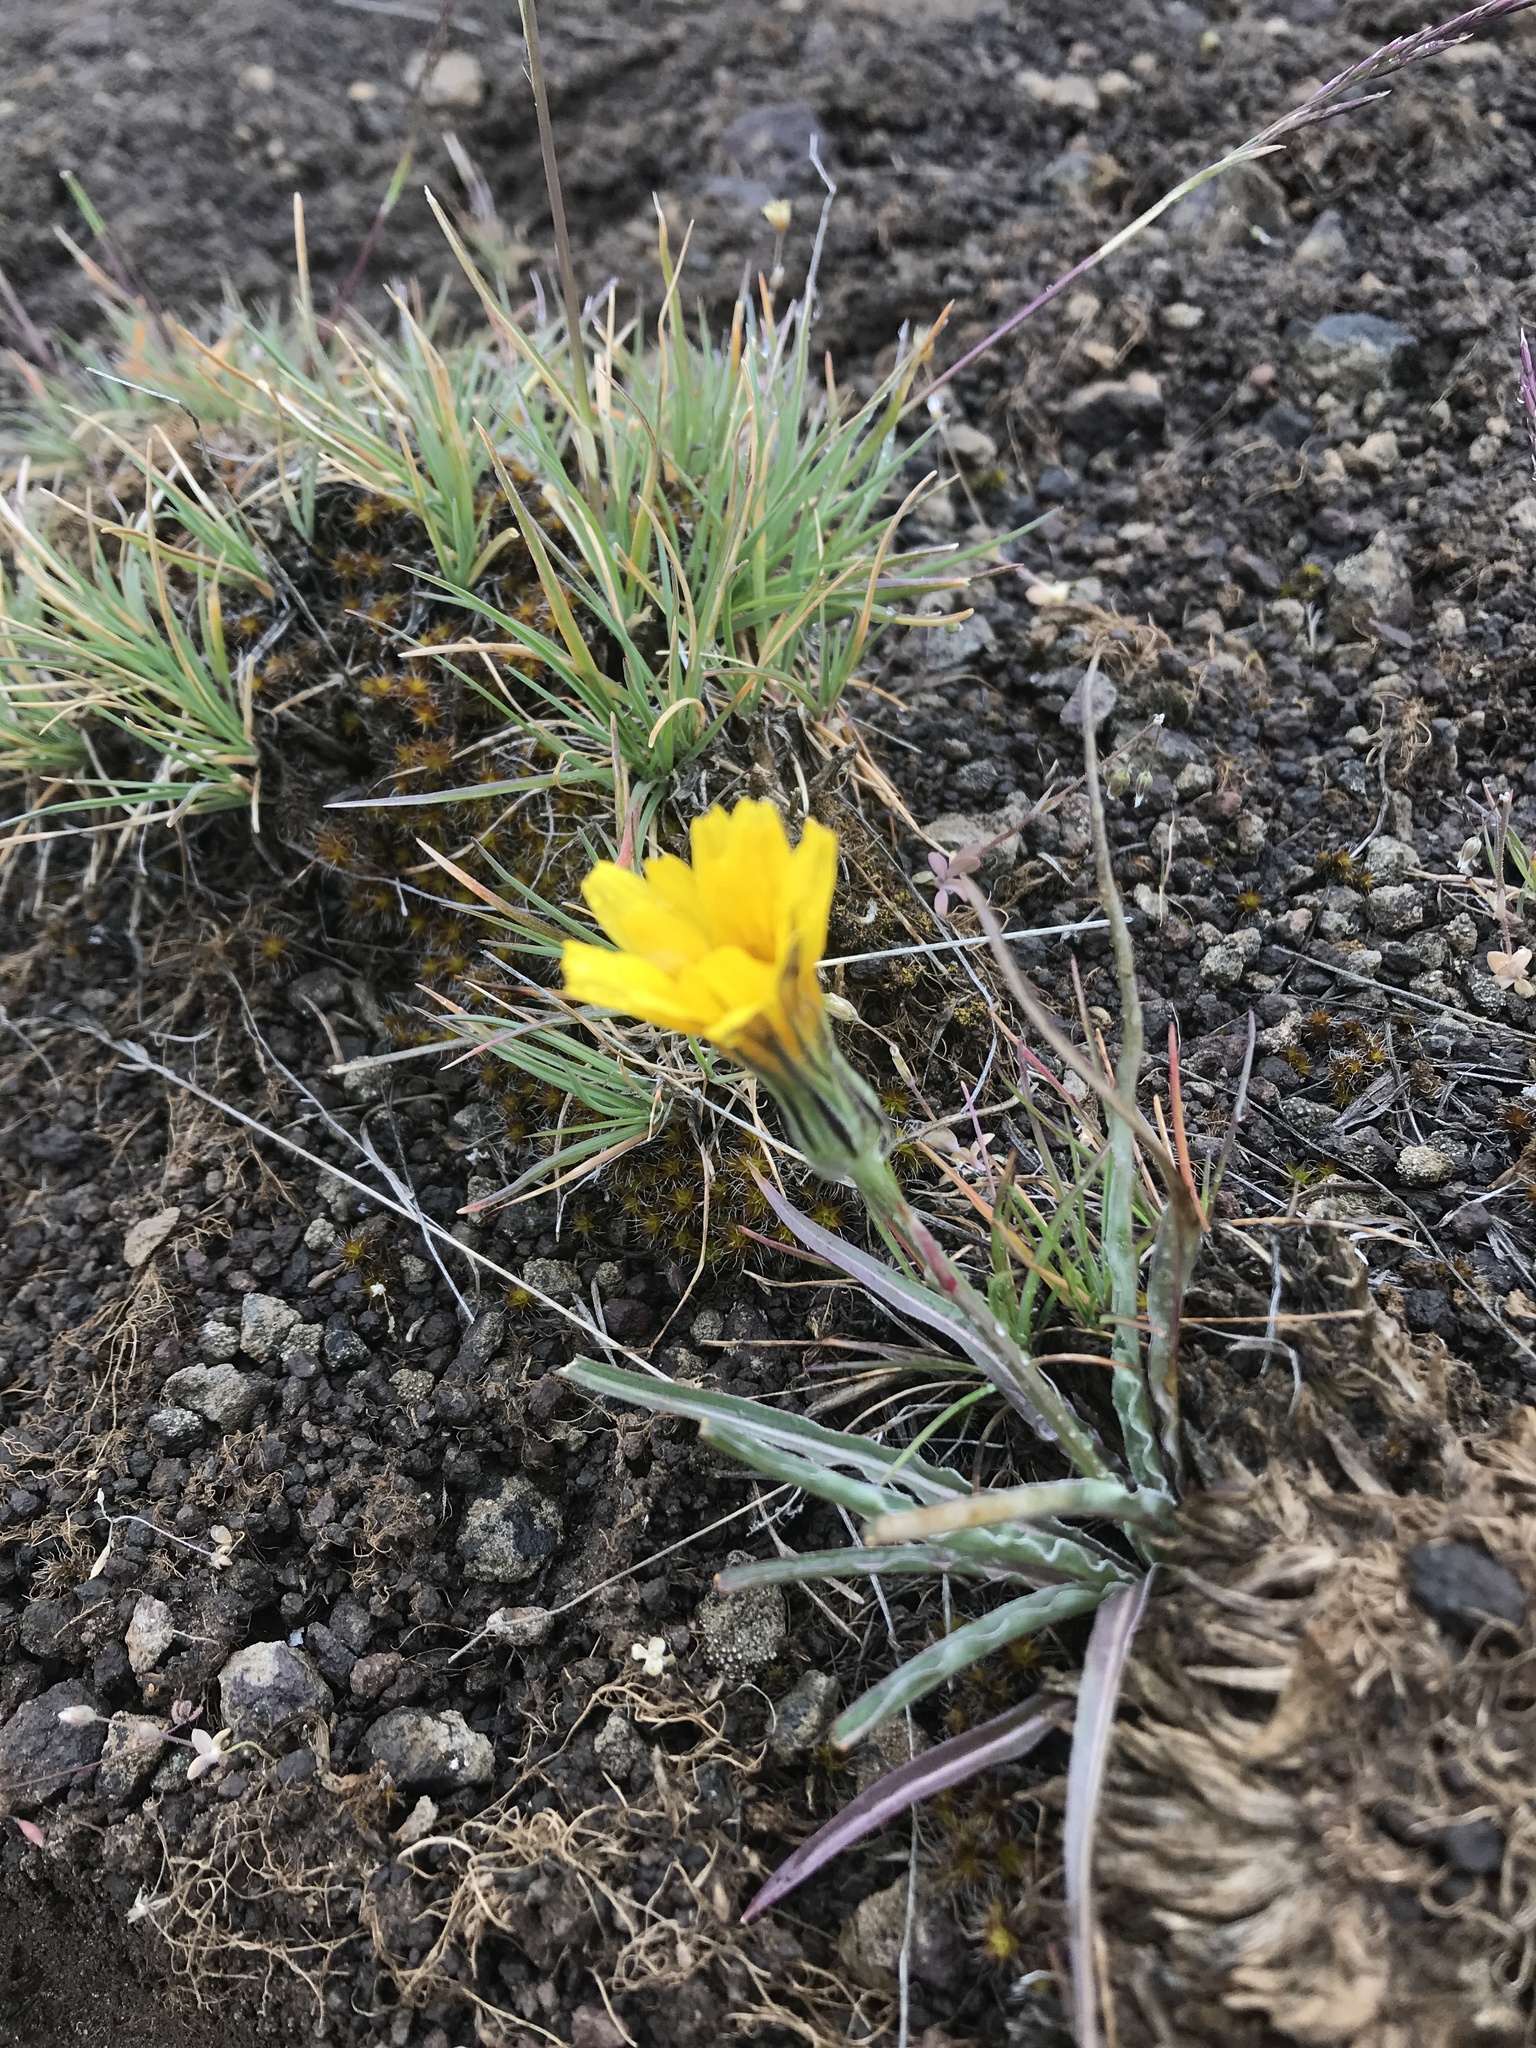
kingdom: Plantae
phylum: Tracheophyta
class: Magnoliopsida
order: Asterales
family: Asteraceae
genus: Microseris
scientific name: Microseris troximoides
